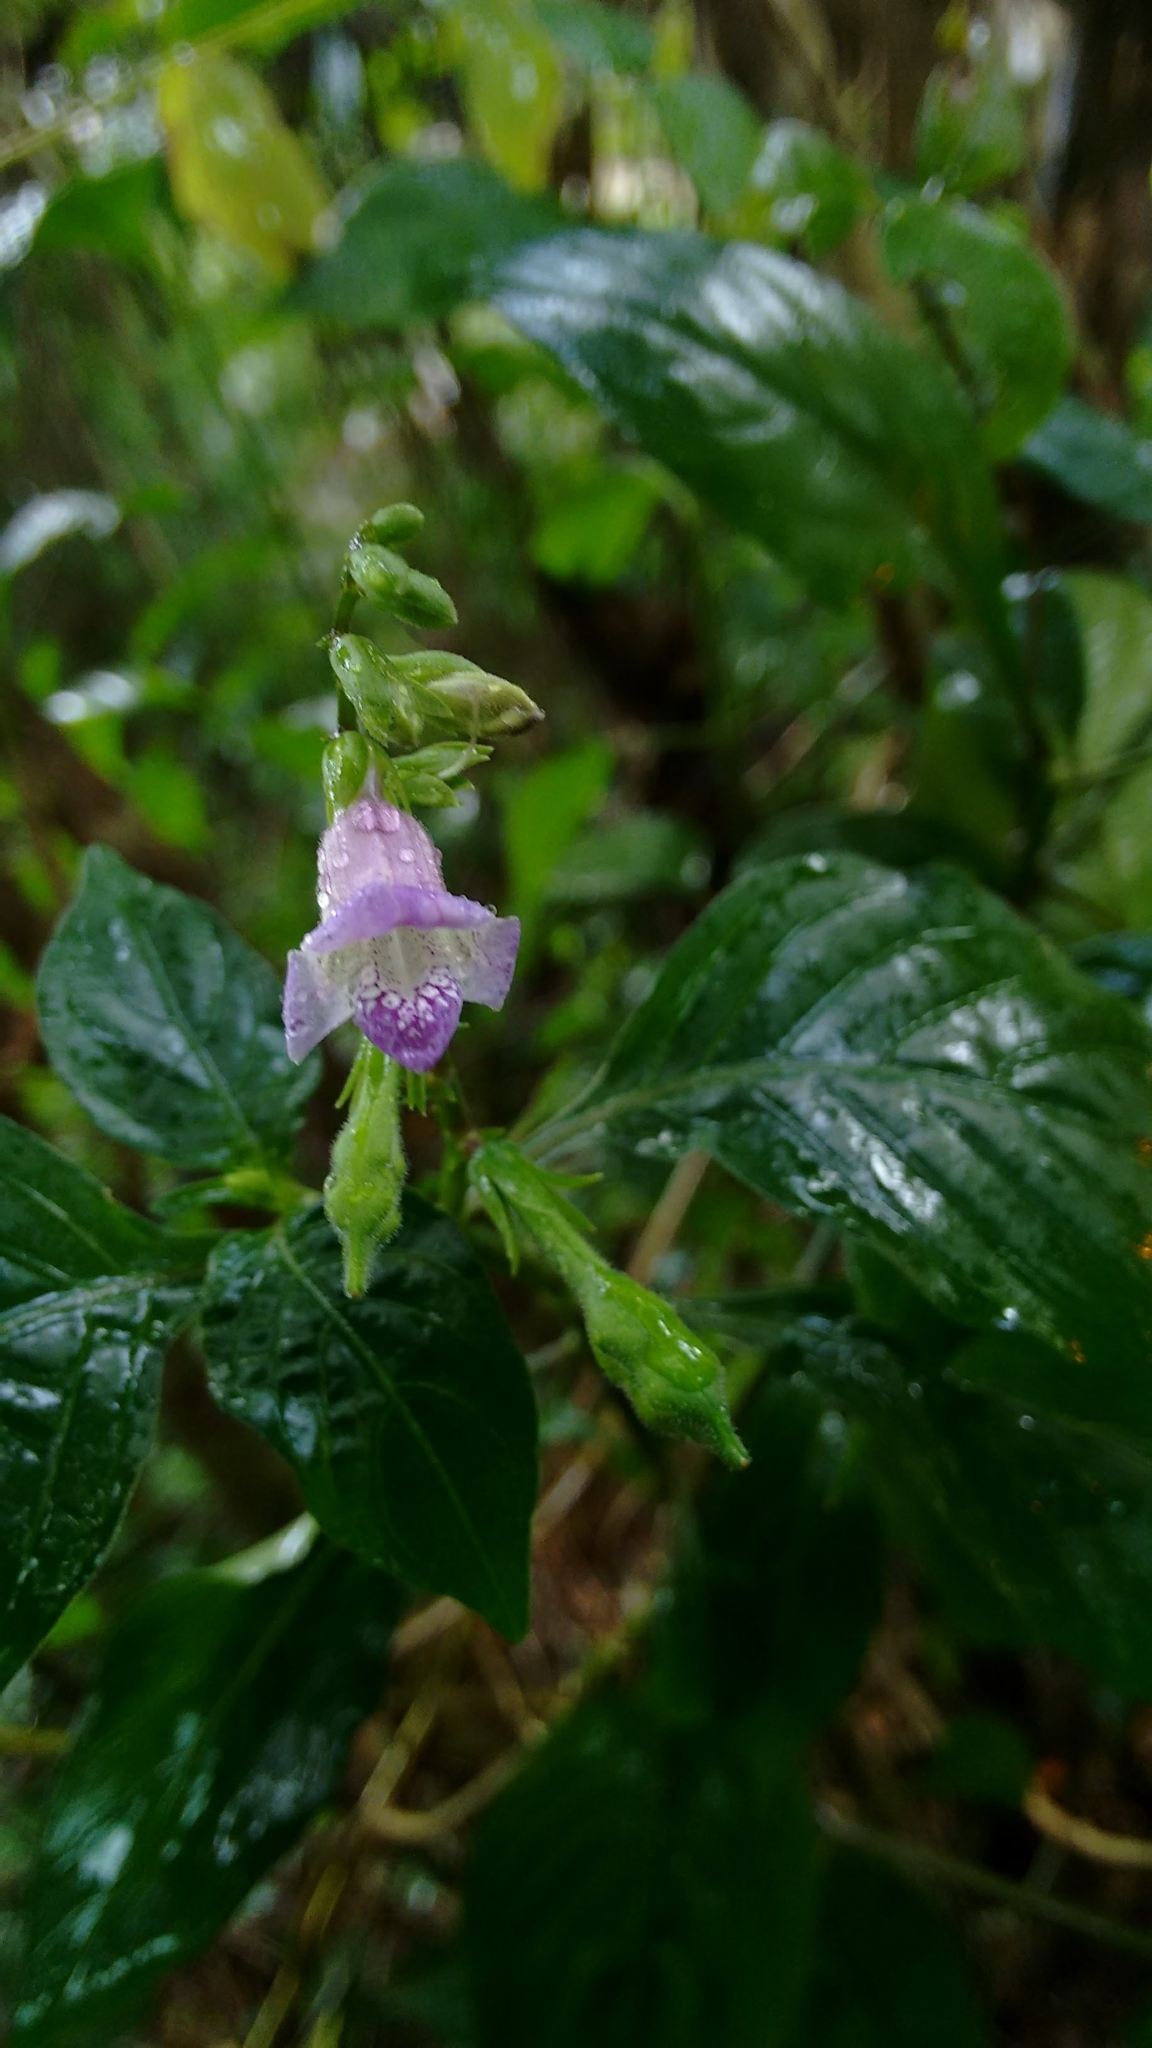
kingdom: Plantae
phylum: Tracheophyta
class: Magnoliopsida
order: Lamiales
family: Acanthaceae
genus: Asystasia
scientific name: Asystasia dalzelliana
